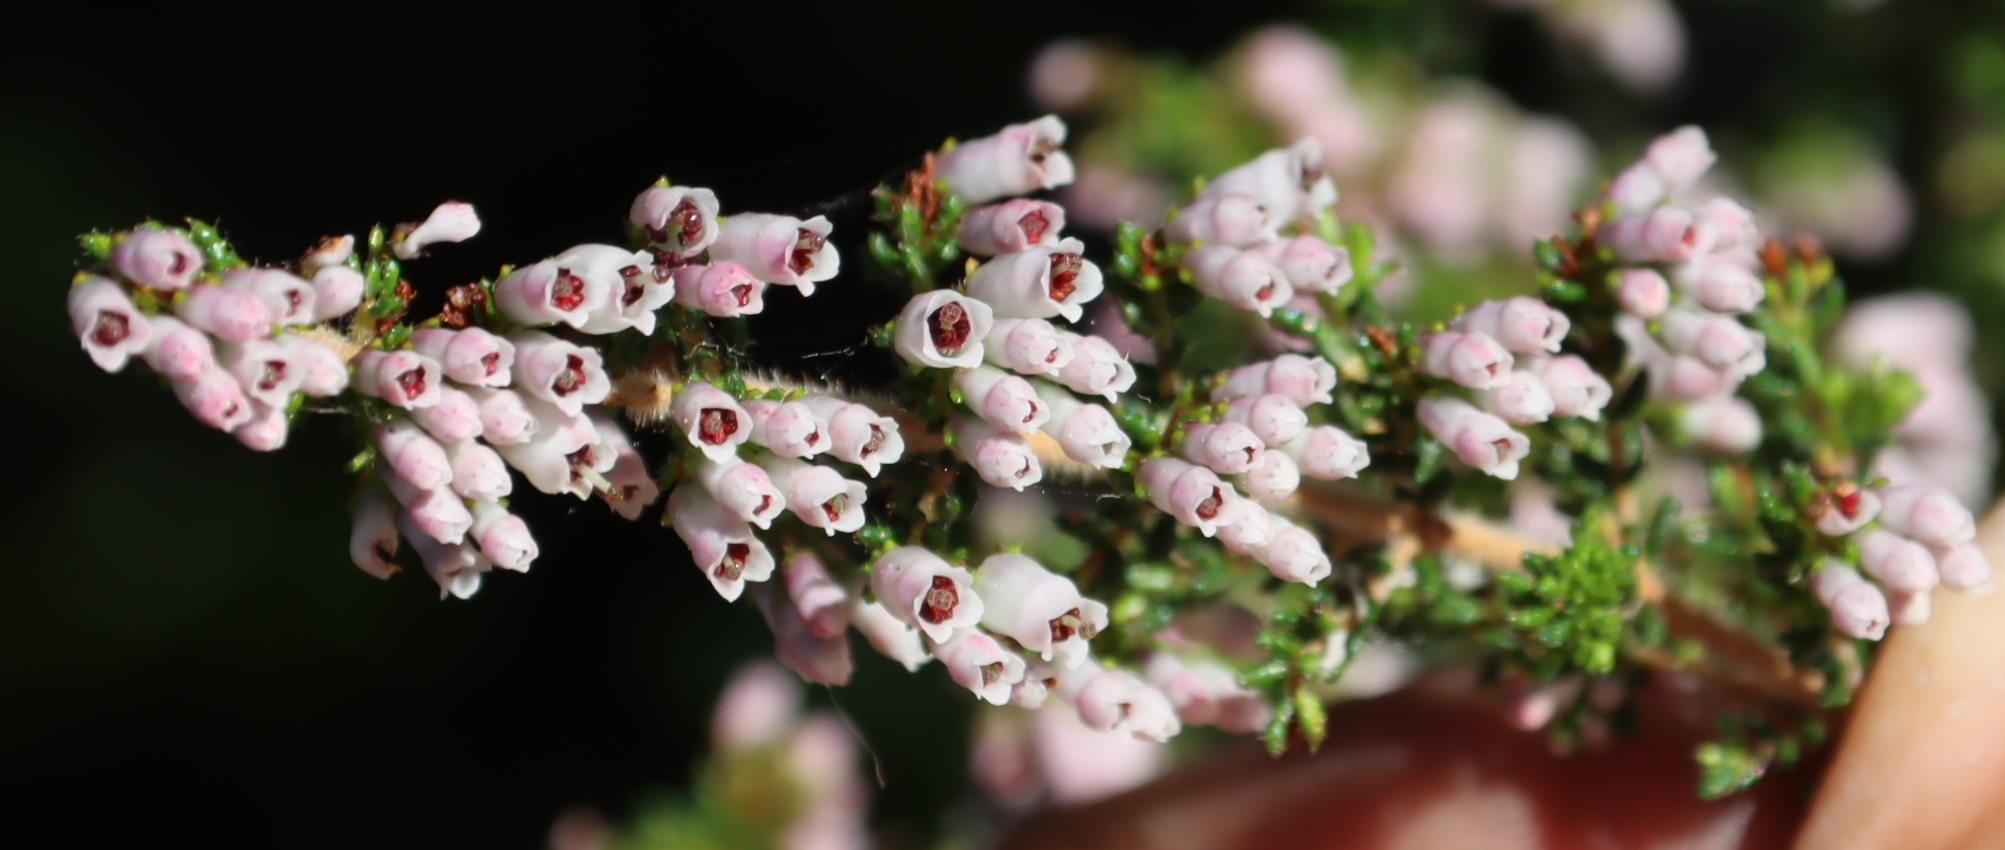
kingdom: Plantae
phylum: Tracheophyta
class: Magnoliopsida
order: Ericales
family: Ericaceae
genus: Erica
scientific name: Erica scabriuscula
